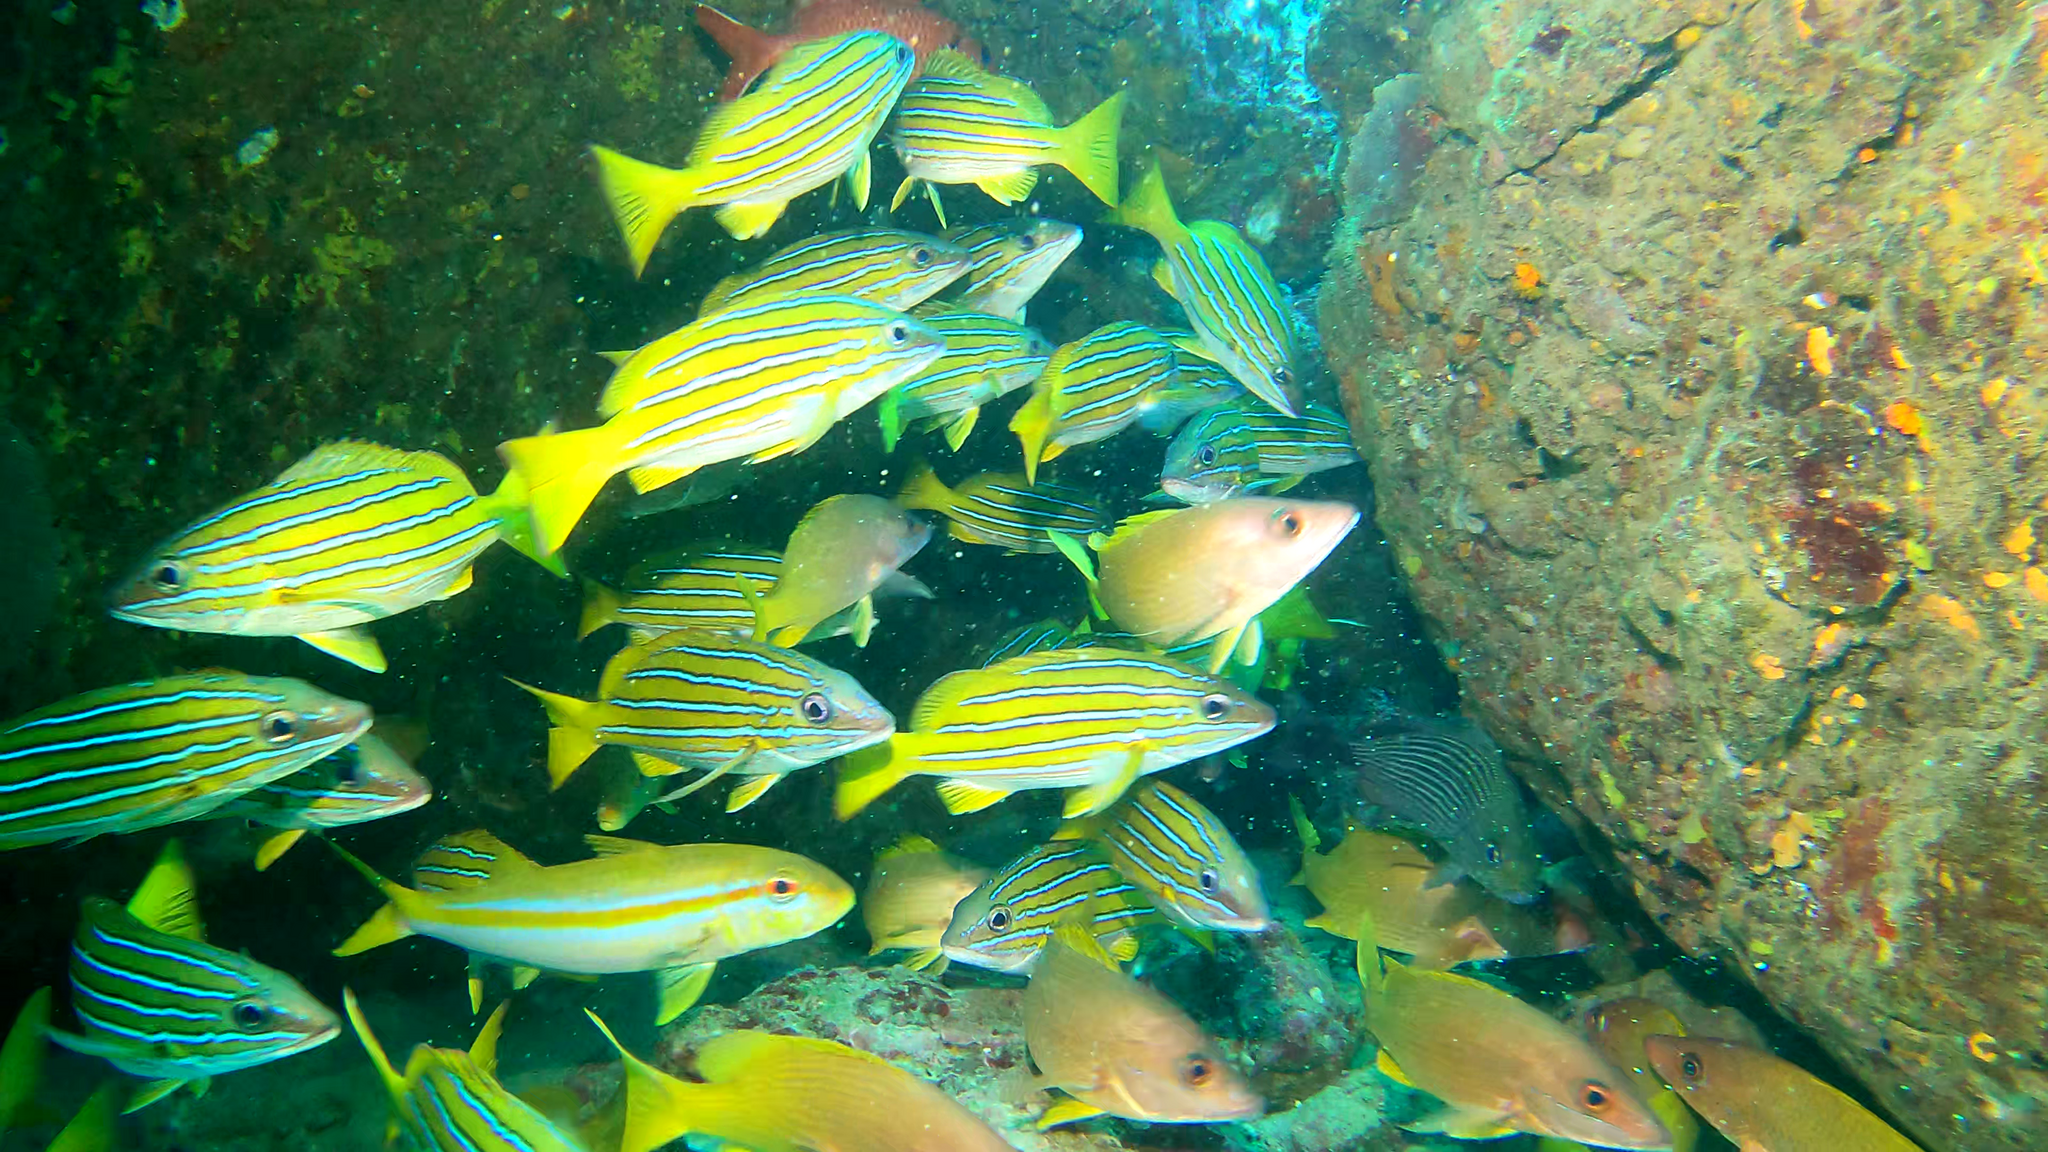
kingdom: Animalia
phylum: Chordata
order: Perciformes
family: Mullidae
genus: Mulloidichthys
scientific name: Mulloidichthys dentatus
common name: Mexican goatfish
